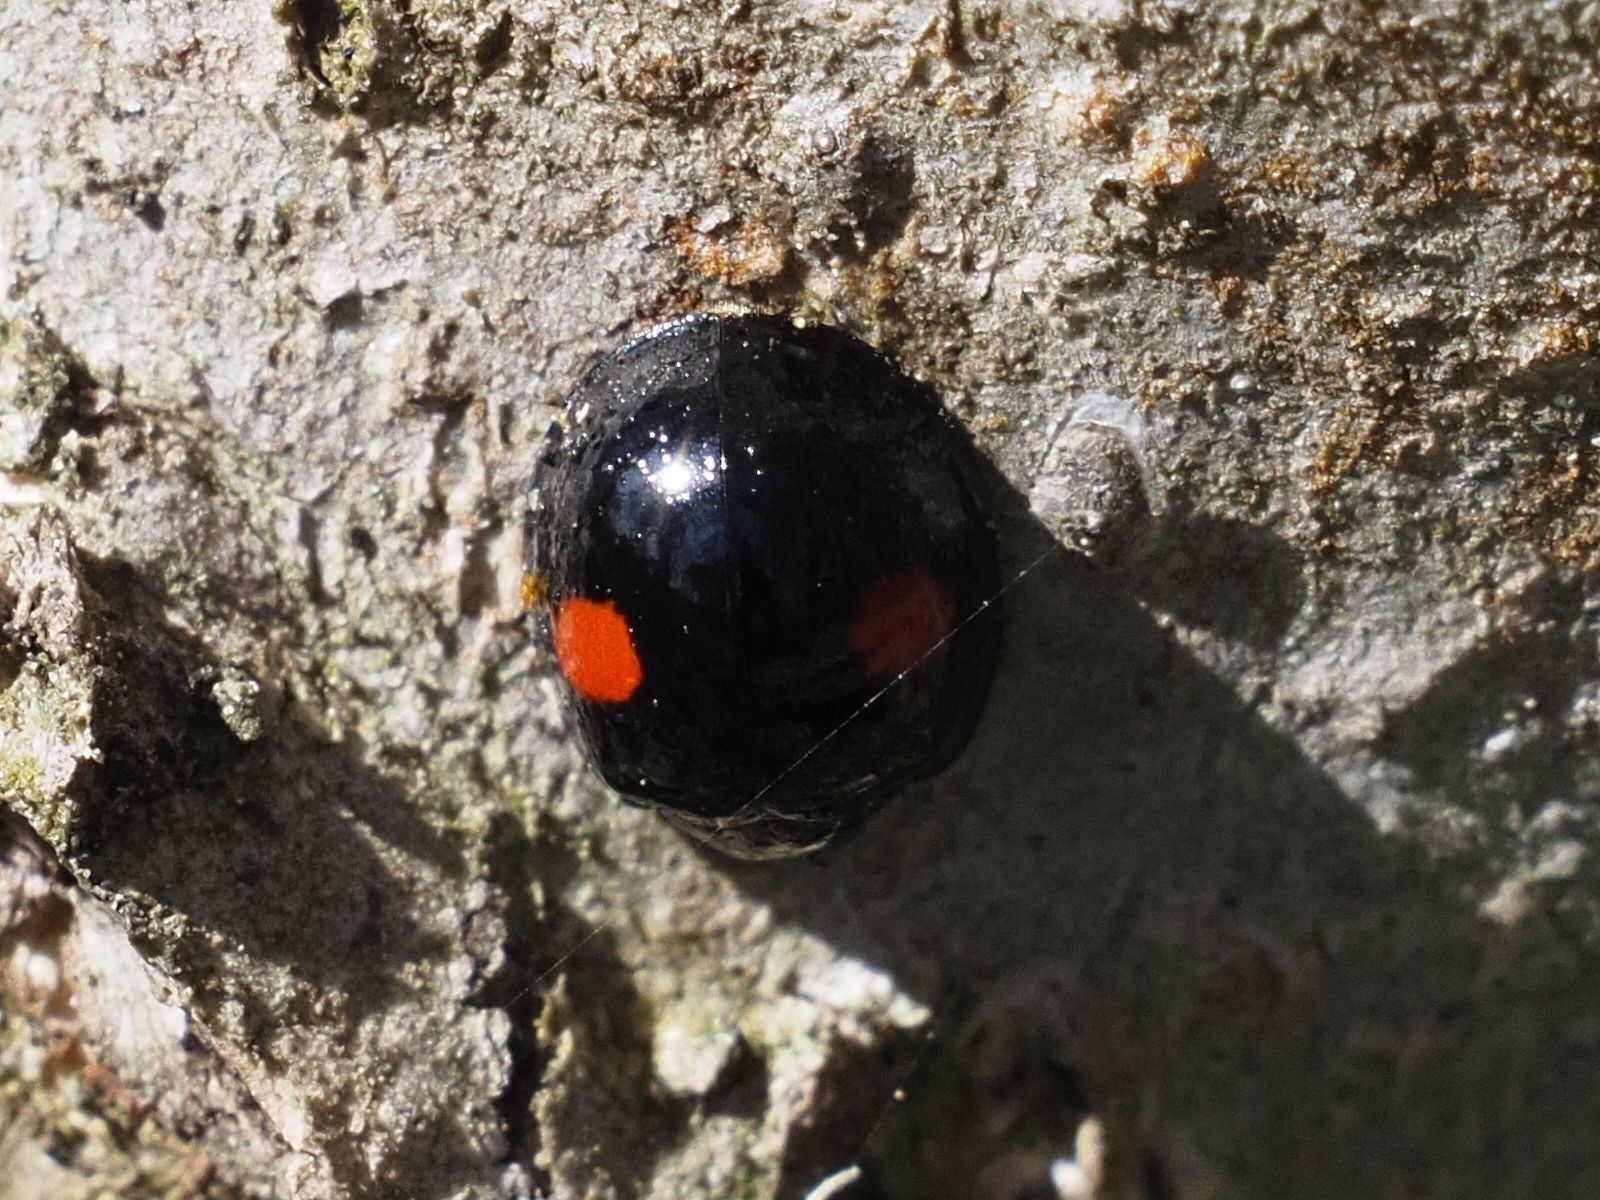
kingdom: Animalia
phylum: Arthropoda
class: Insecta
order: Coleoptera
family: Coccinellidae
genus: Chilocorus
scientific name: Chilocorus renipustulatus
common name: Kidney-spot ladybird
